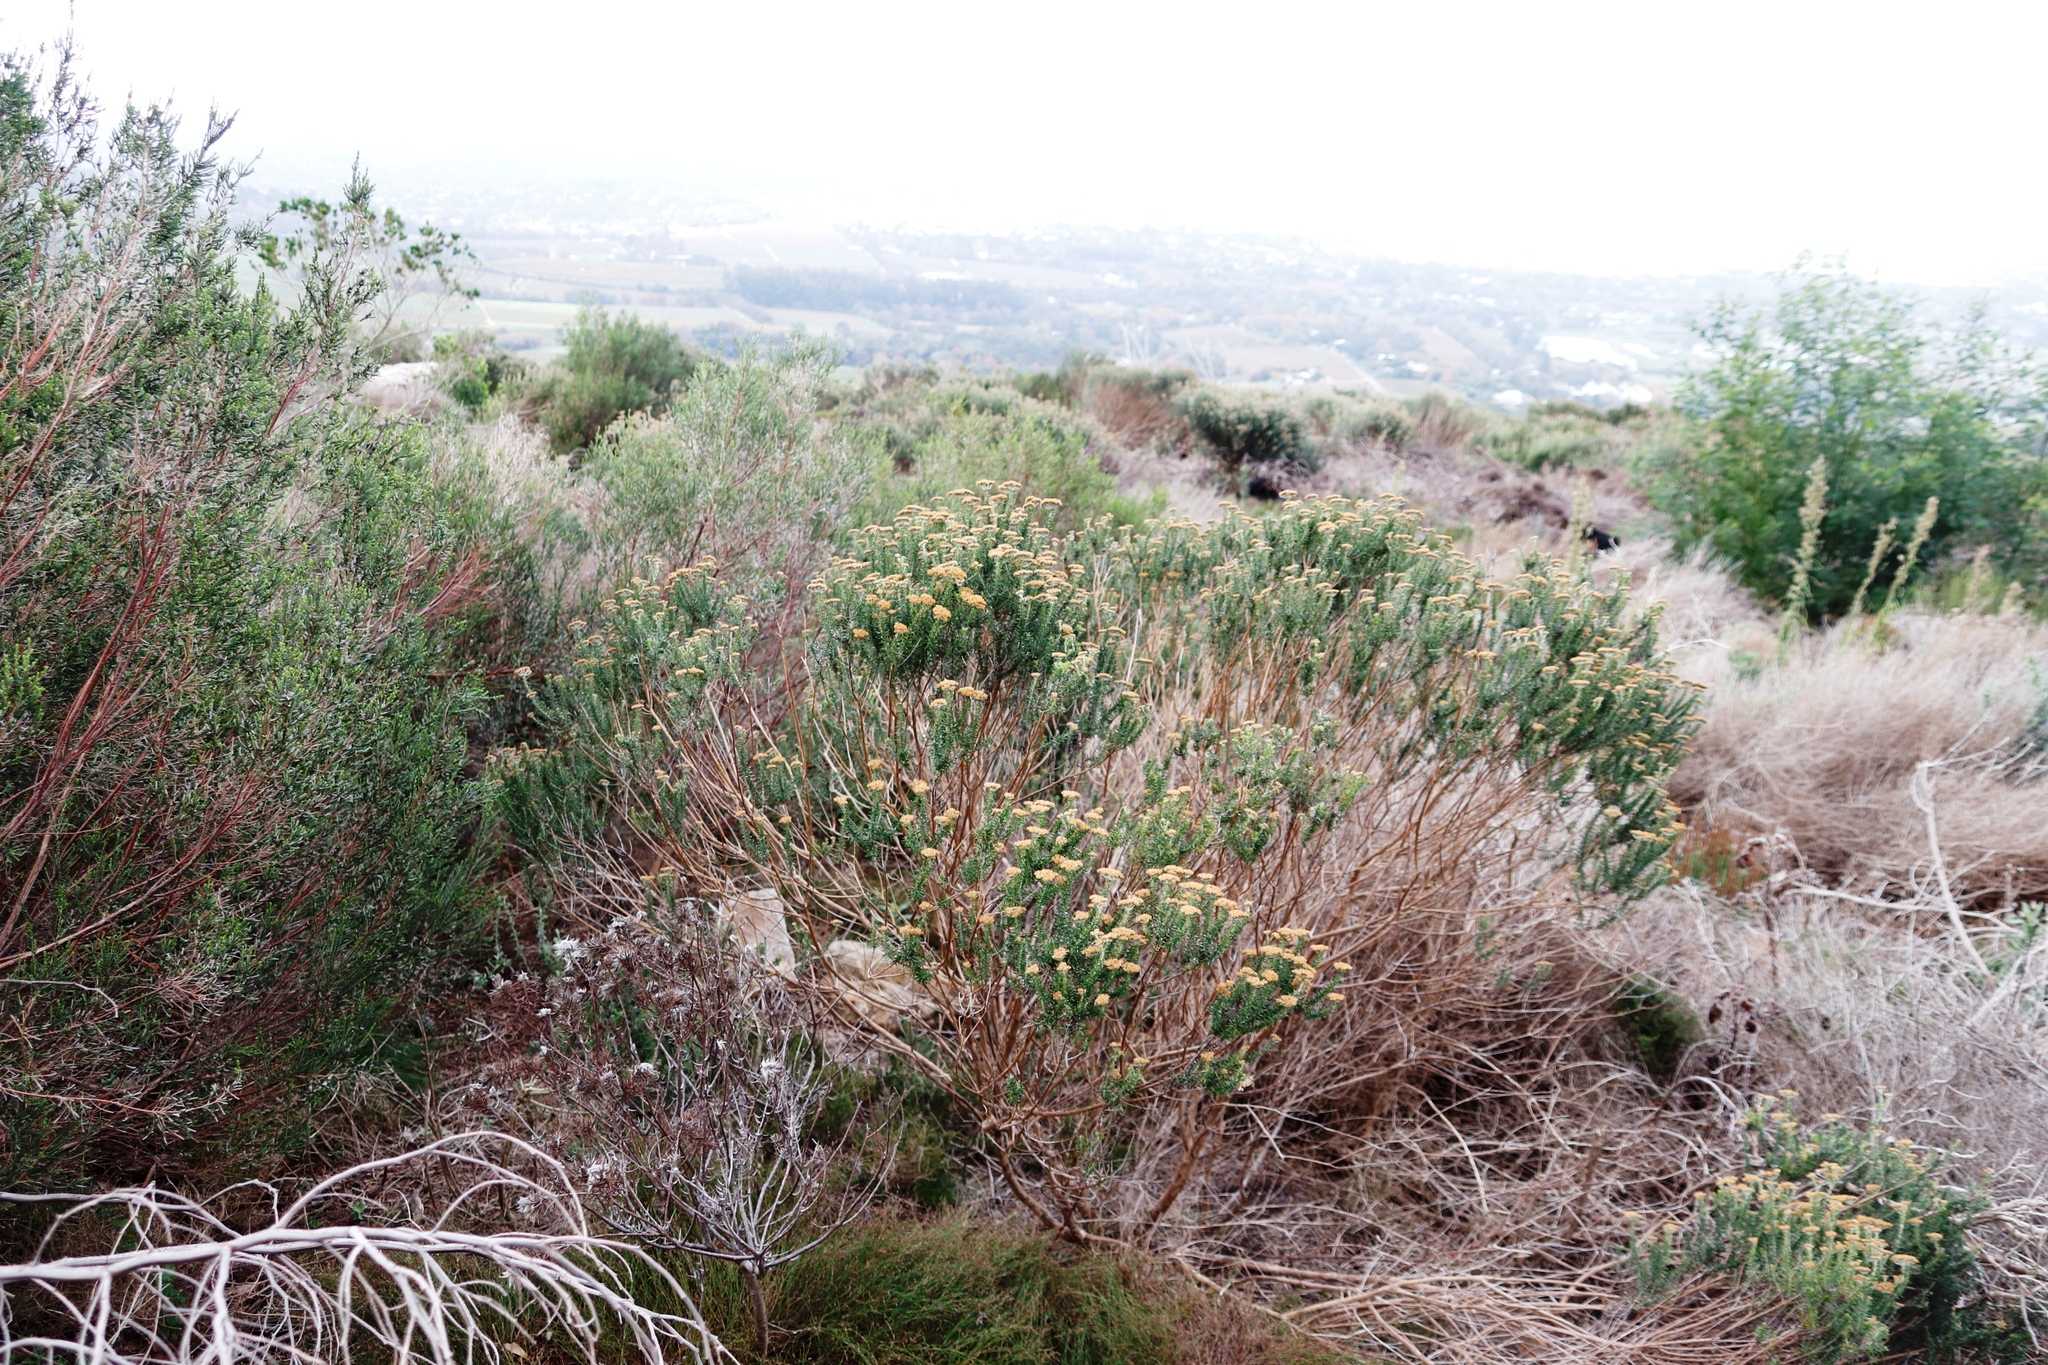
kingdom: Plantae
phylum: Tracheophyta
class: Magnoliopsida
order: Asterales
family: Asteraceae
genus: Metalasia
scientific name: Metalasia densa
